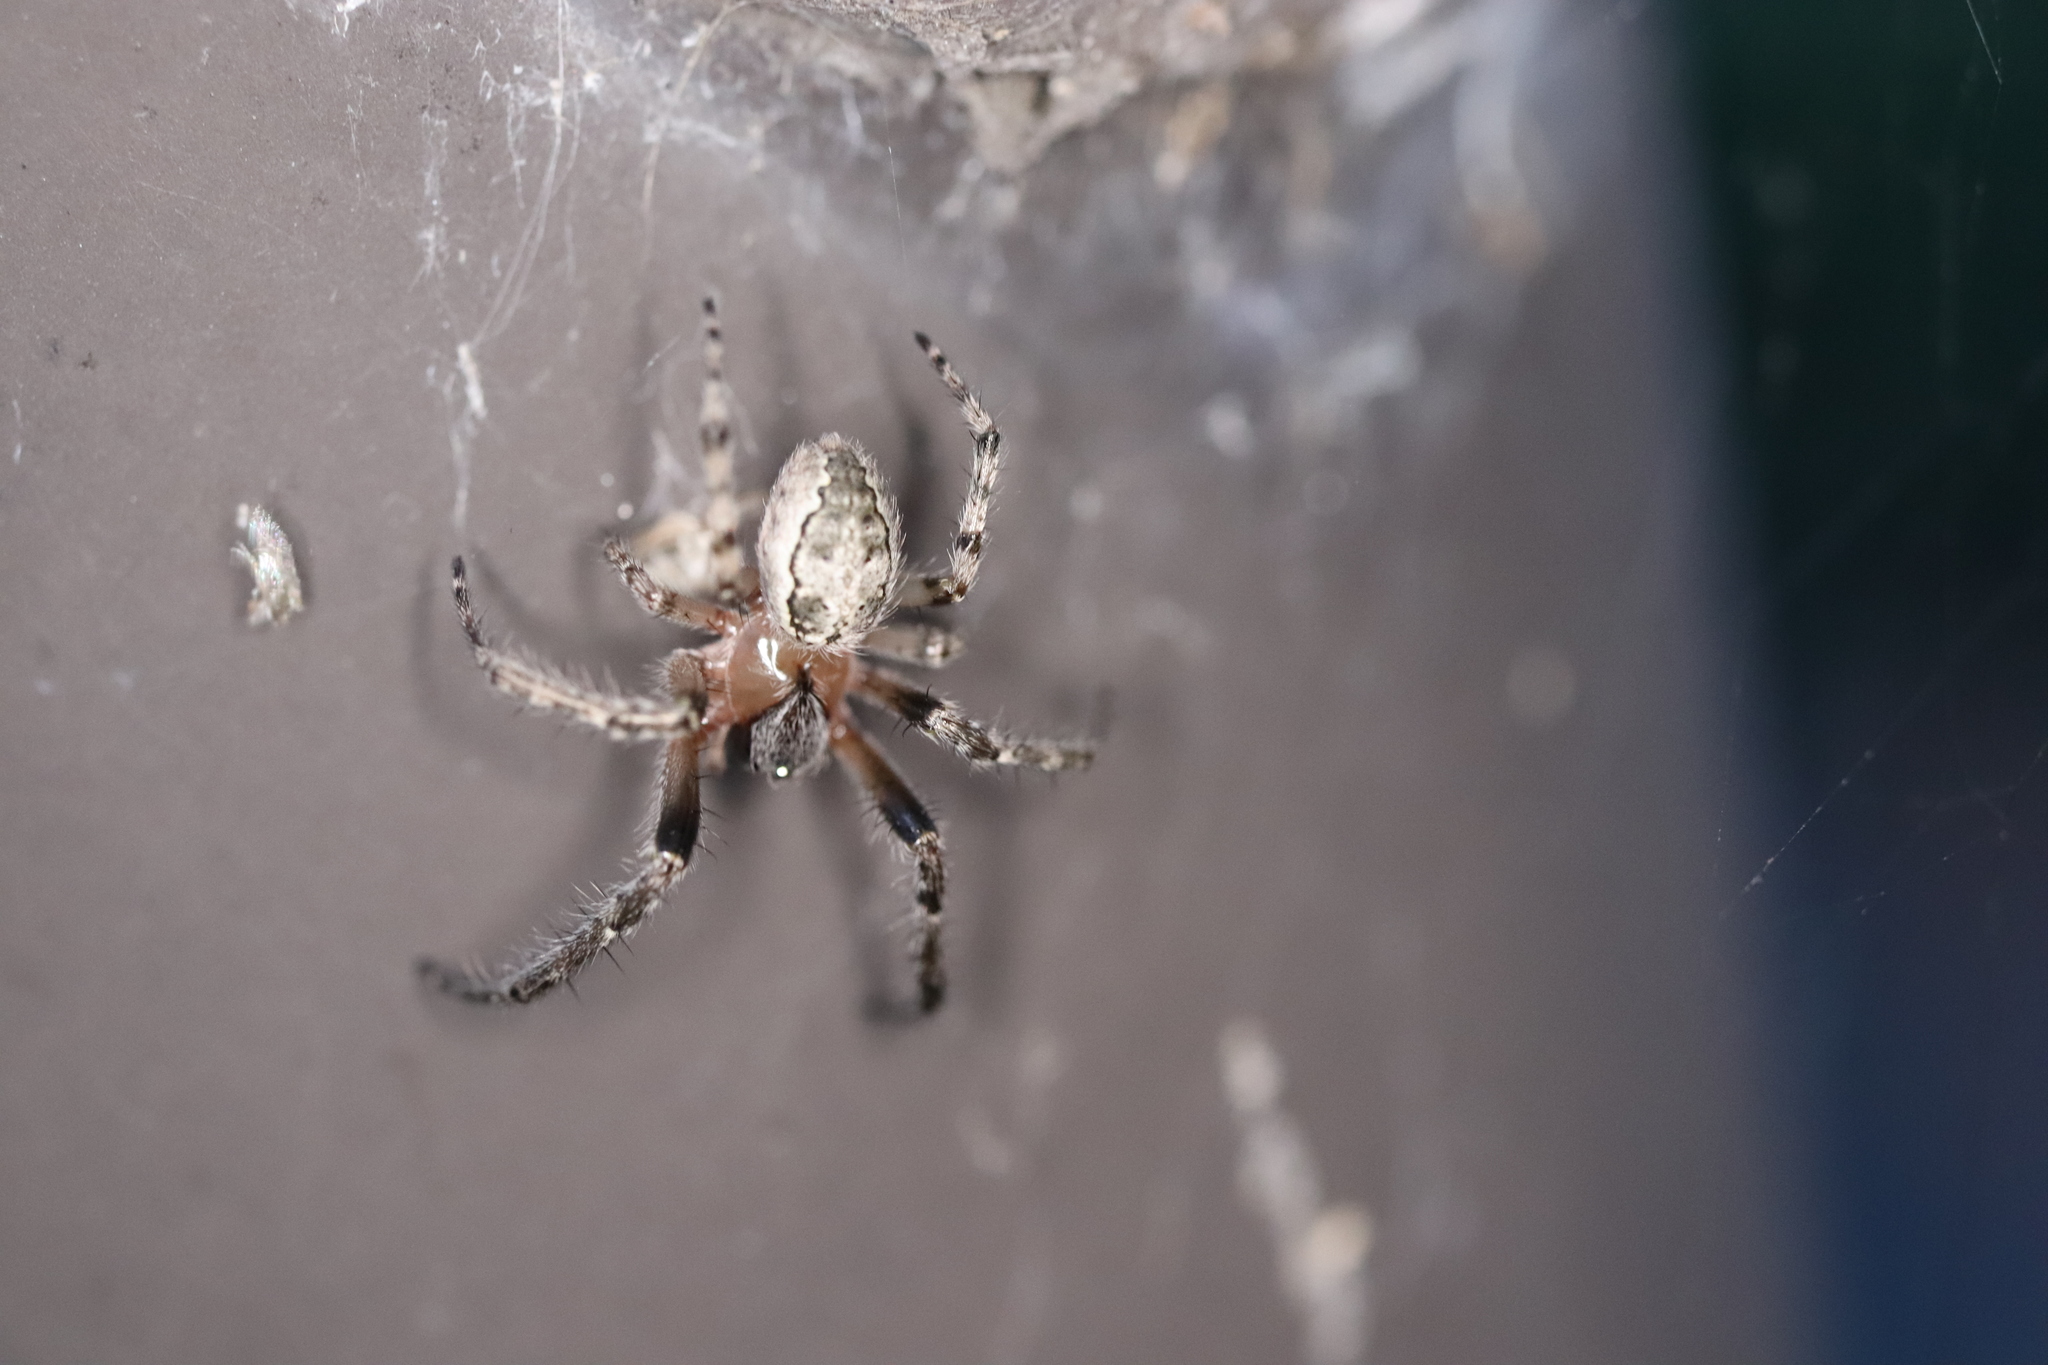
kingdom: Animalia
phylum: Arthropoda
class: Arachnida
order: Araneae
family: Araneidae
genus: Yaginumia
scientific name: Yaginumia sia
